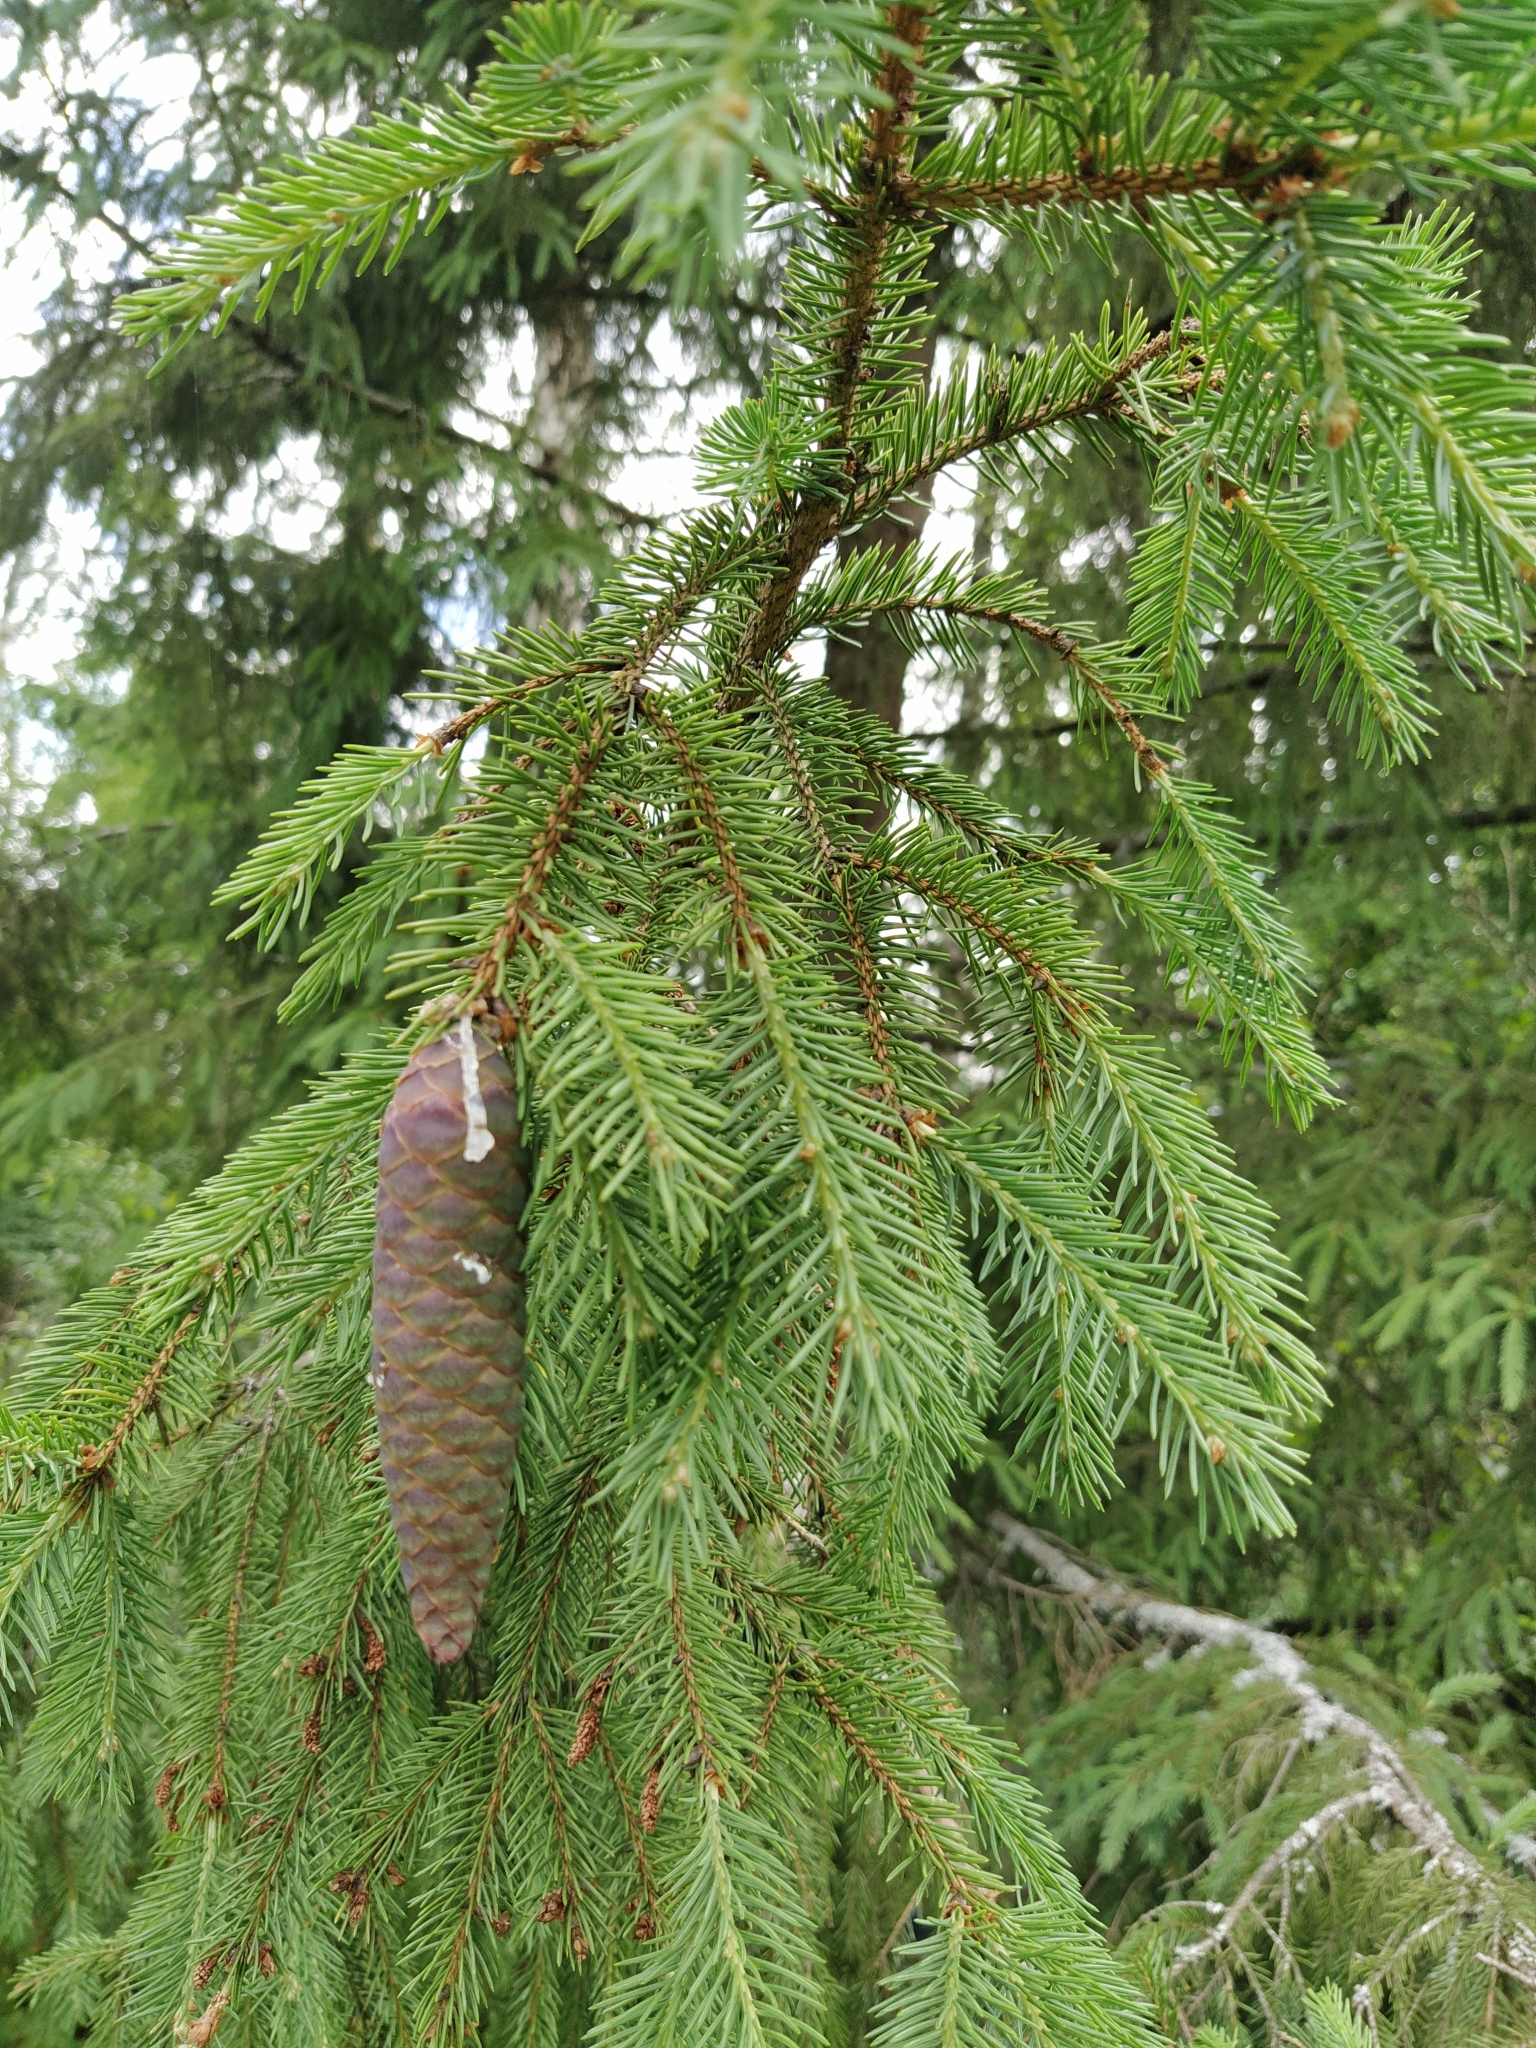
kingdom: Plantae
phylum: Tracheophyta
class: Pinopsida
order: Pinales
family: Pinaceae
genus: Picea
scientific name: Picea abies
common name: Norway spruce
